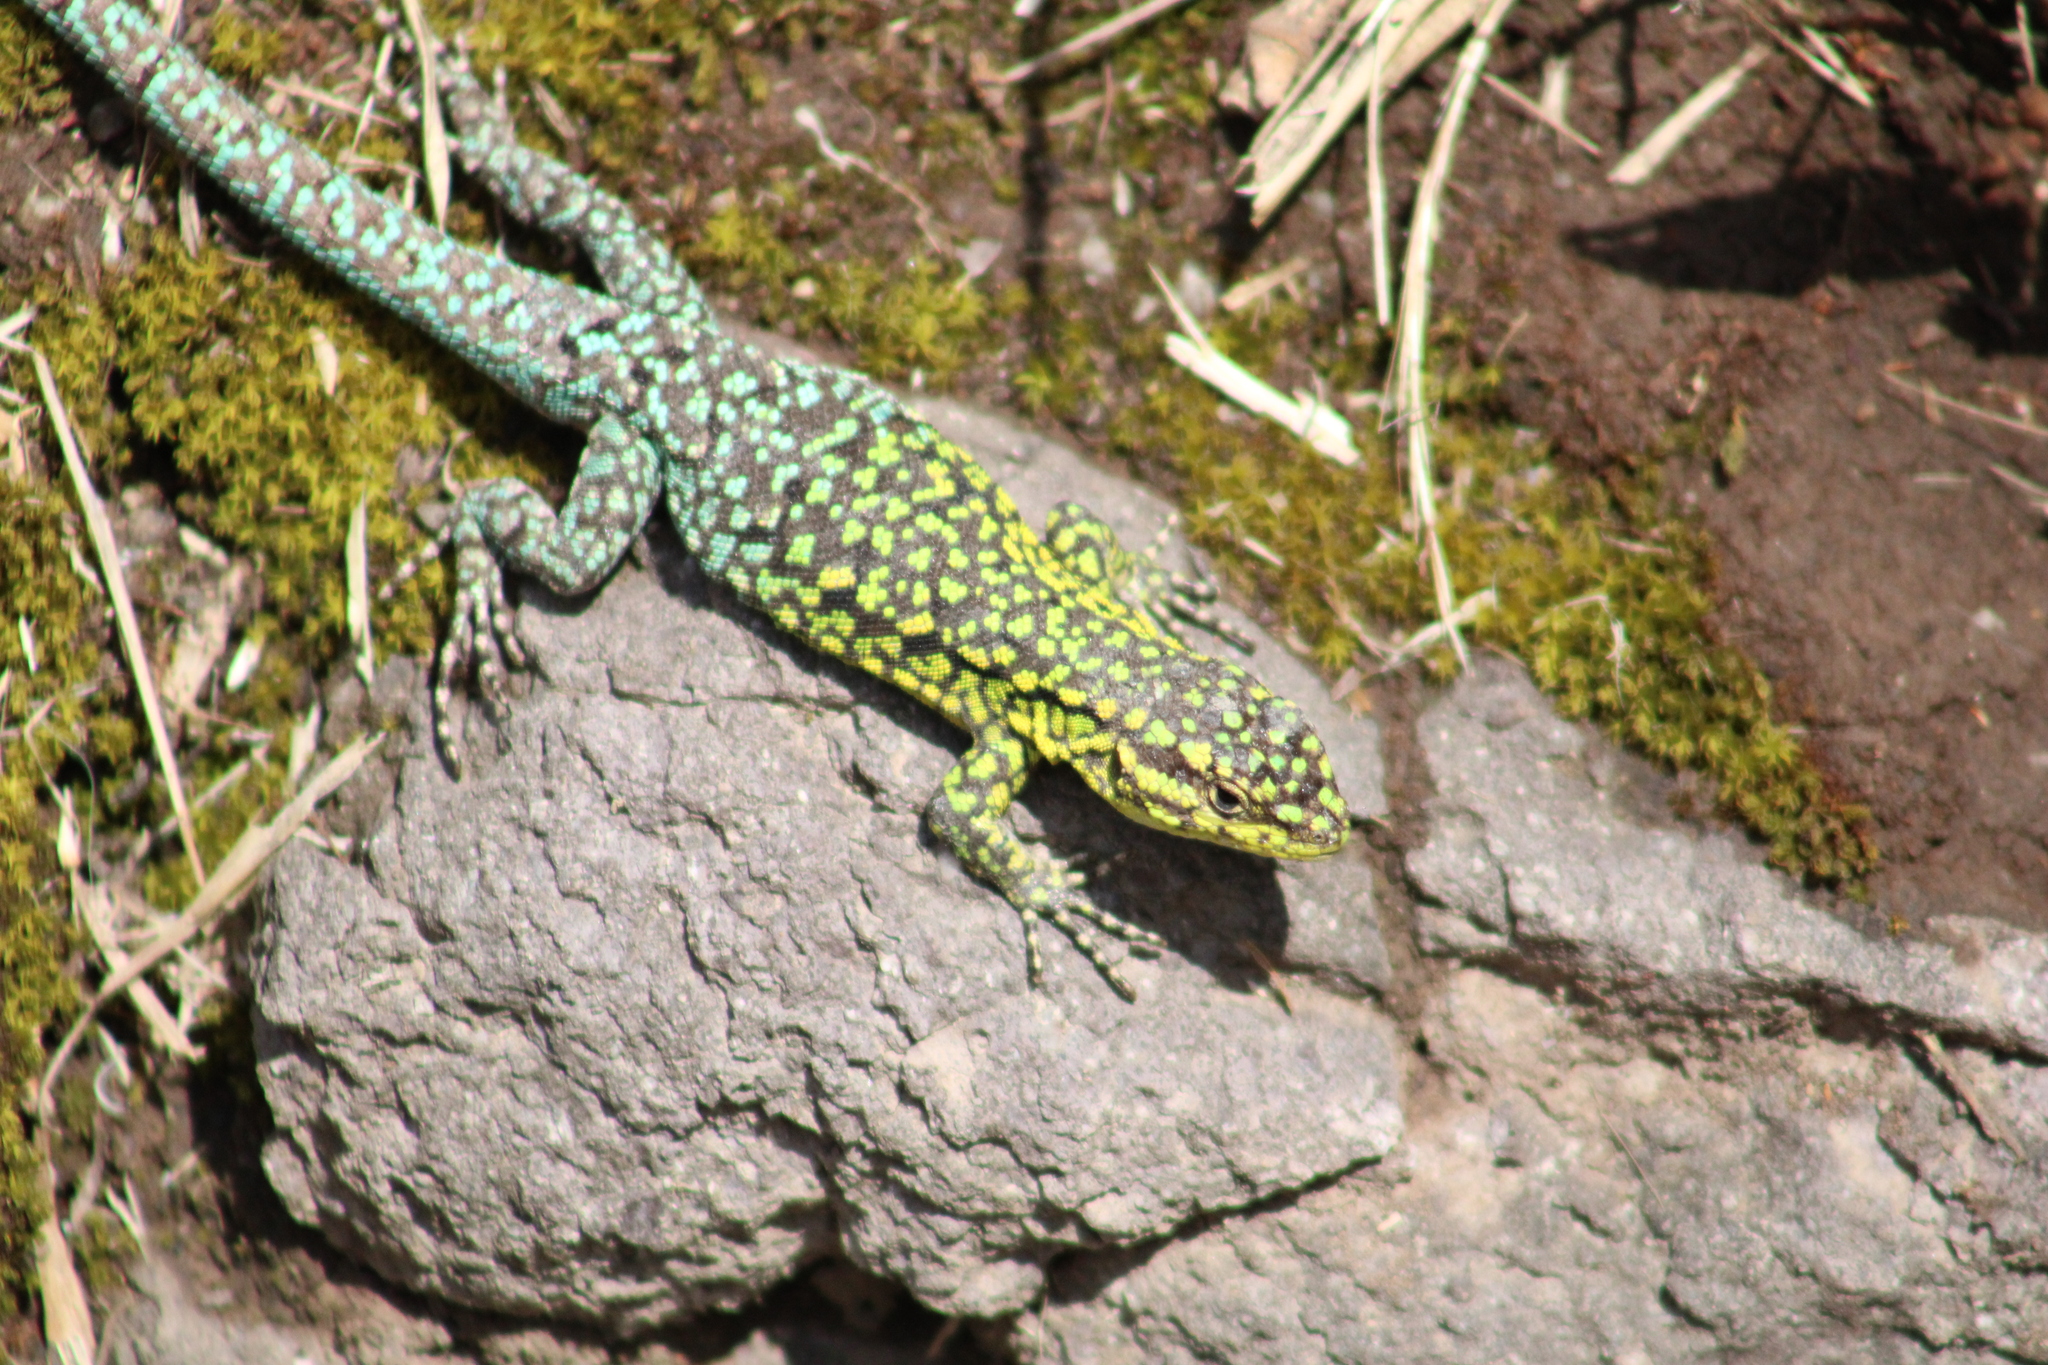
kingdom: Animalia
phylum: Chordata
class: Squamata
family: Liolaemidae
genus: Liolaemus
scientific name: Liolaemus tenuis
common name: Thin tree iguana
